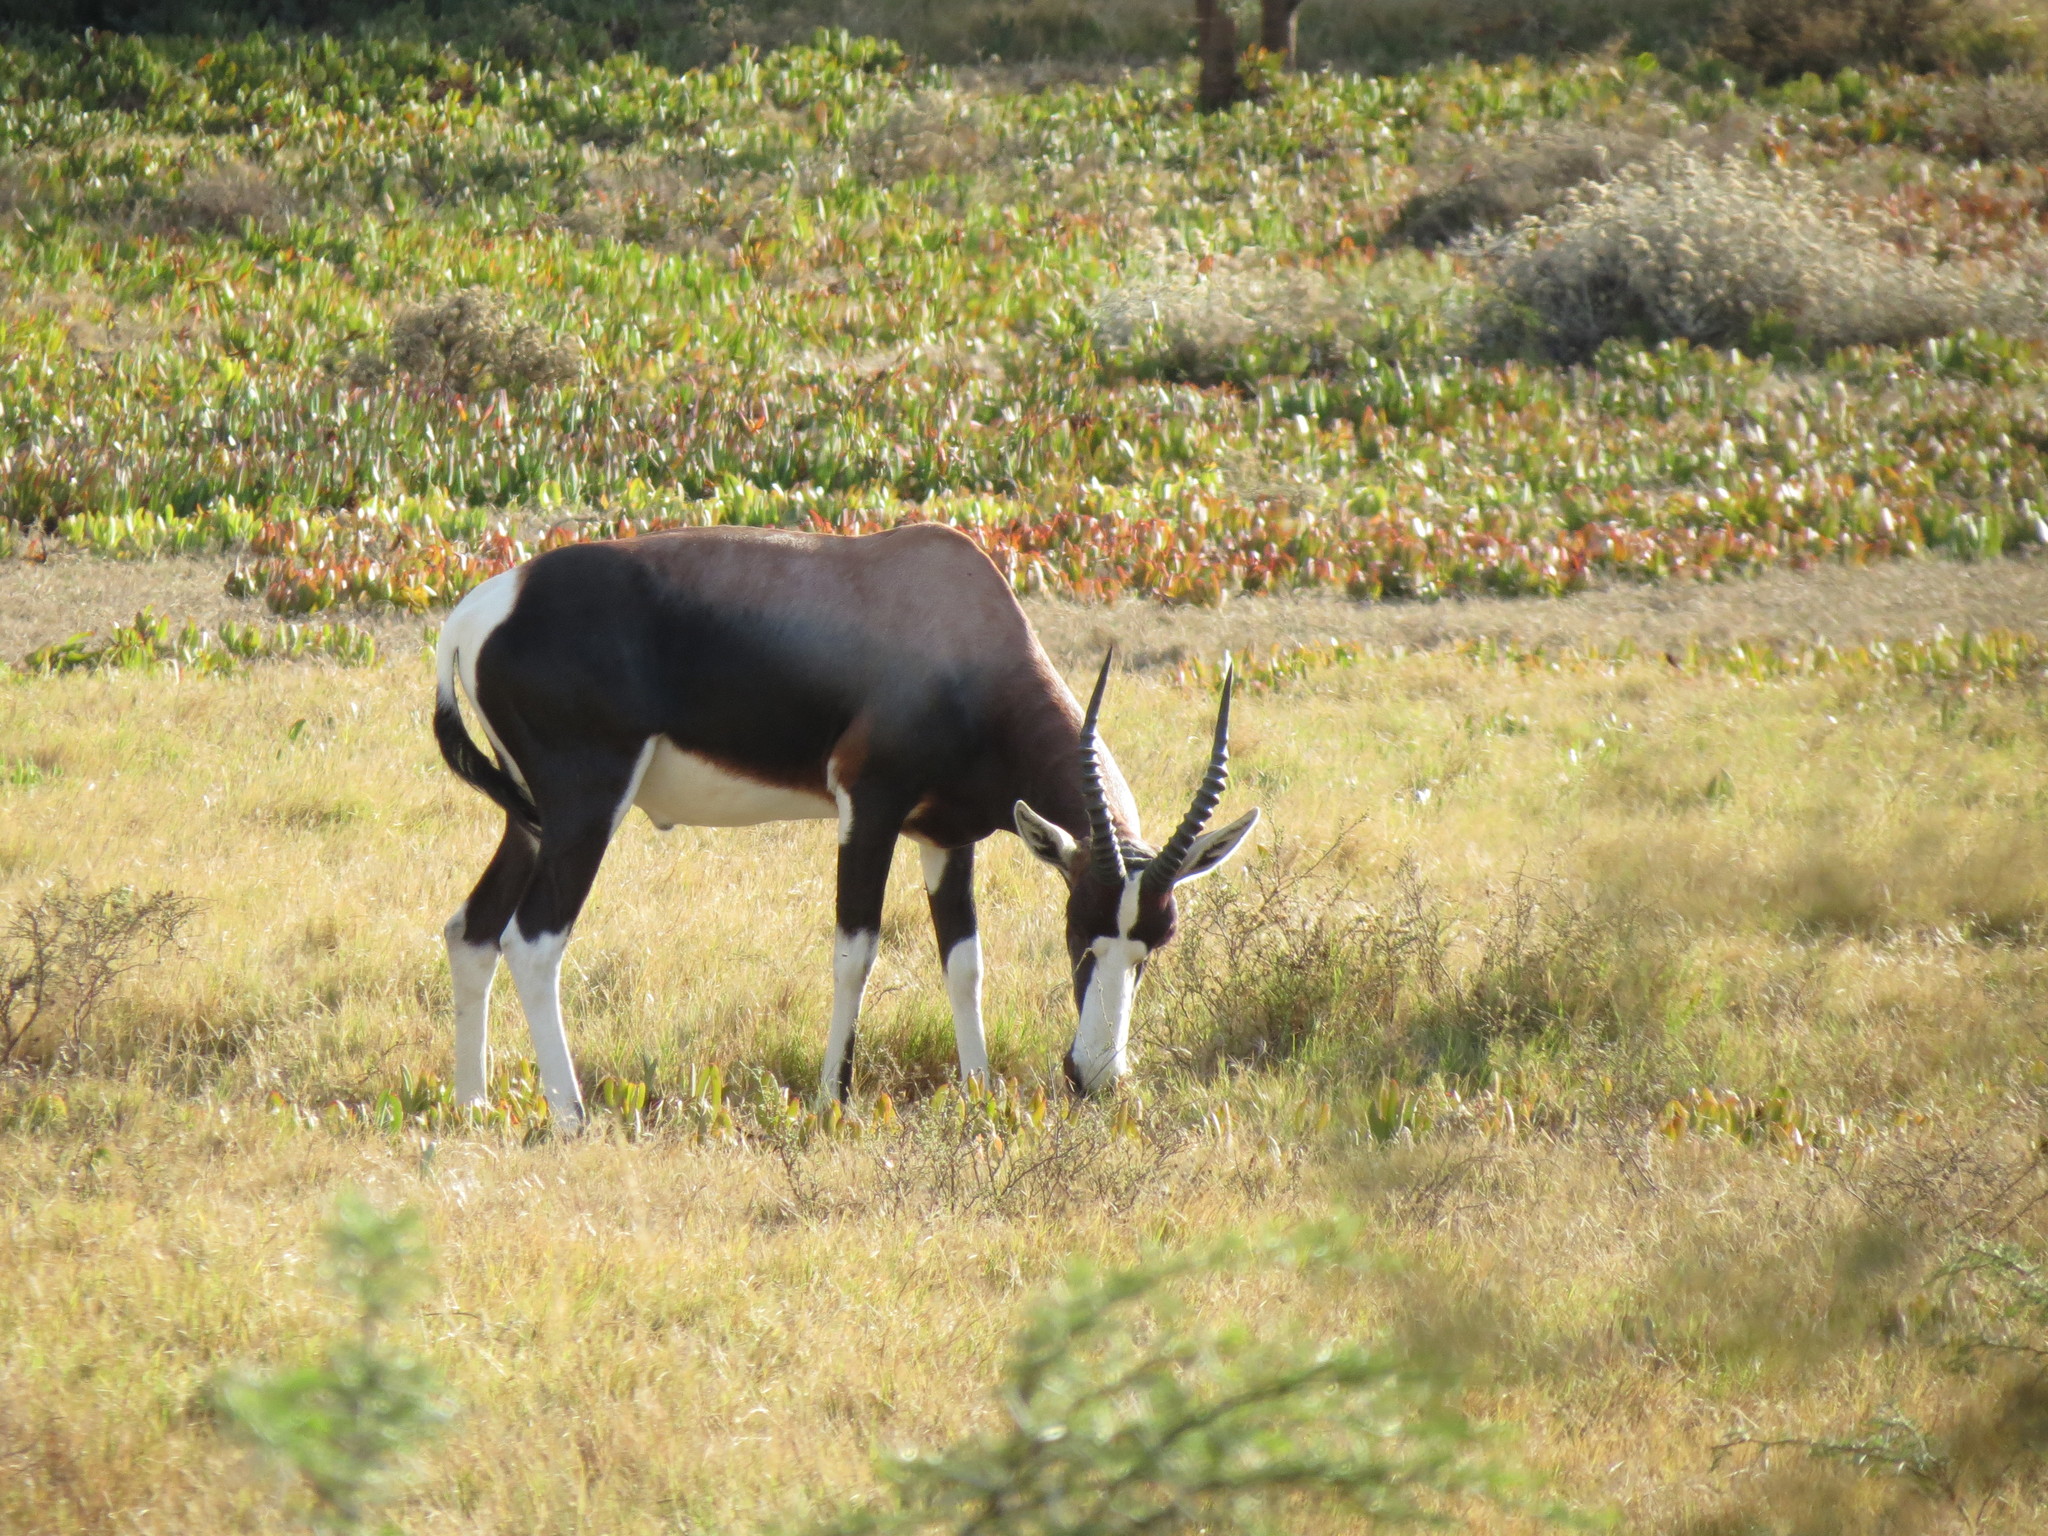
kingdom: Animalia
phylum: Chordata
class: Mammalia
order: Artiodactyla
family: Bovidae
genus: Damaliscus
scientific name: Damaliscus pygargus
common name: Bontebok
